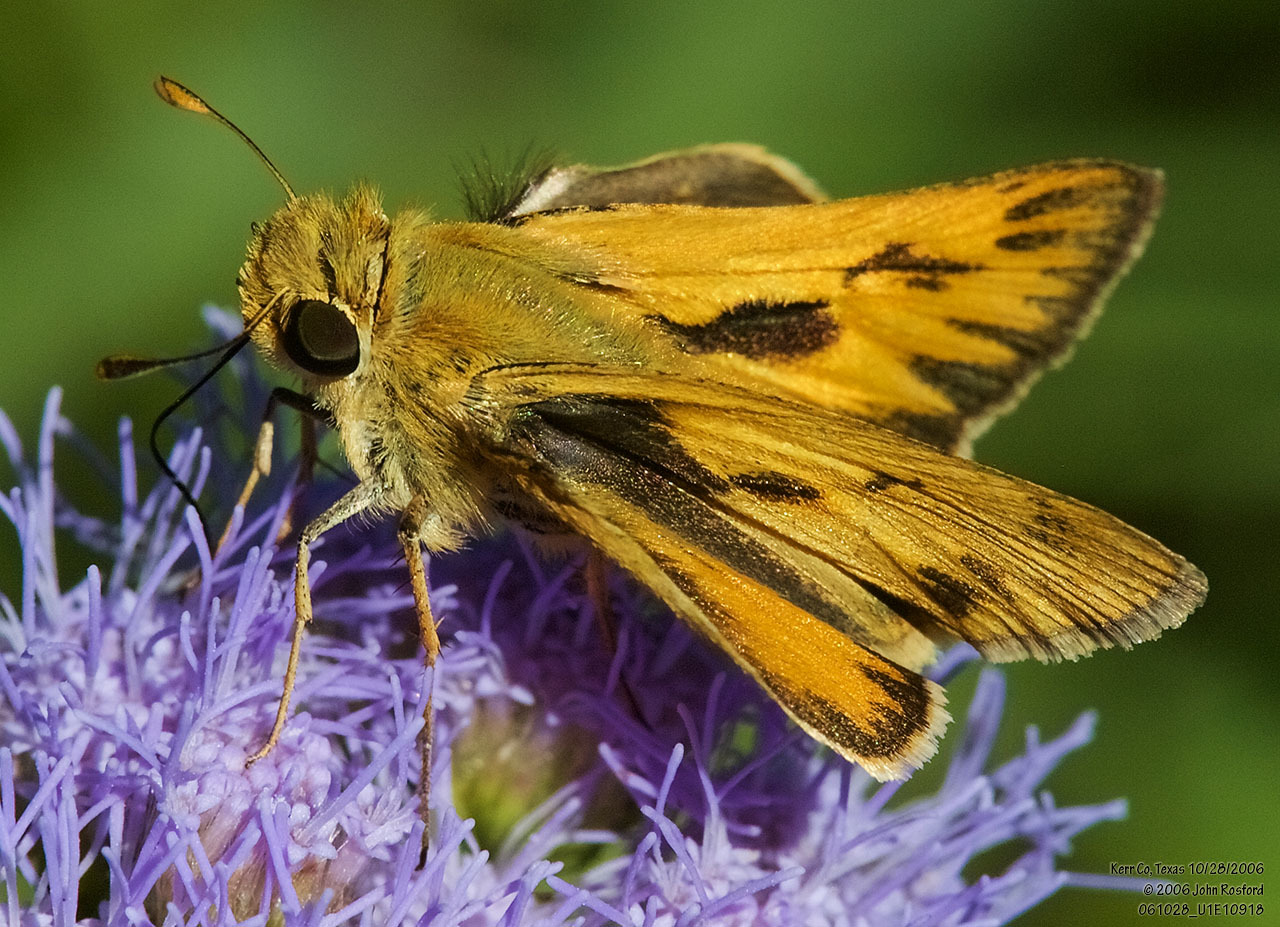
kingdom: Animalia
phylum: Arthropoda
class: Insecta
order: Lepidoptera
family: Hesperiidae
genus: Hylephila
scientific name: Hylephila phyleus
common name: Fiery skipper
